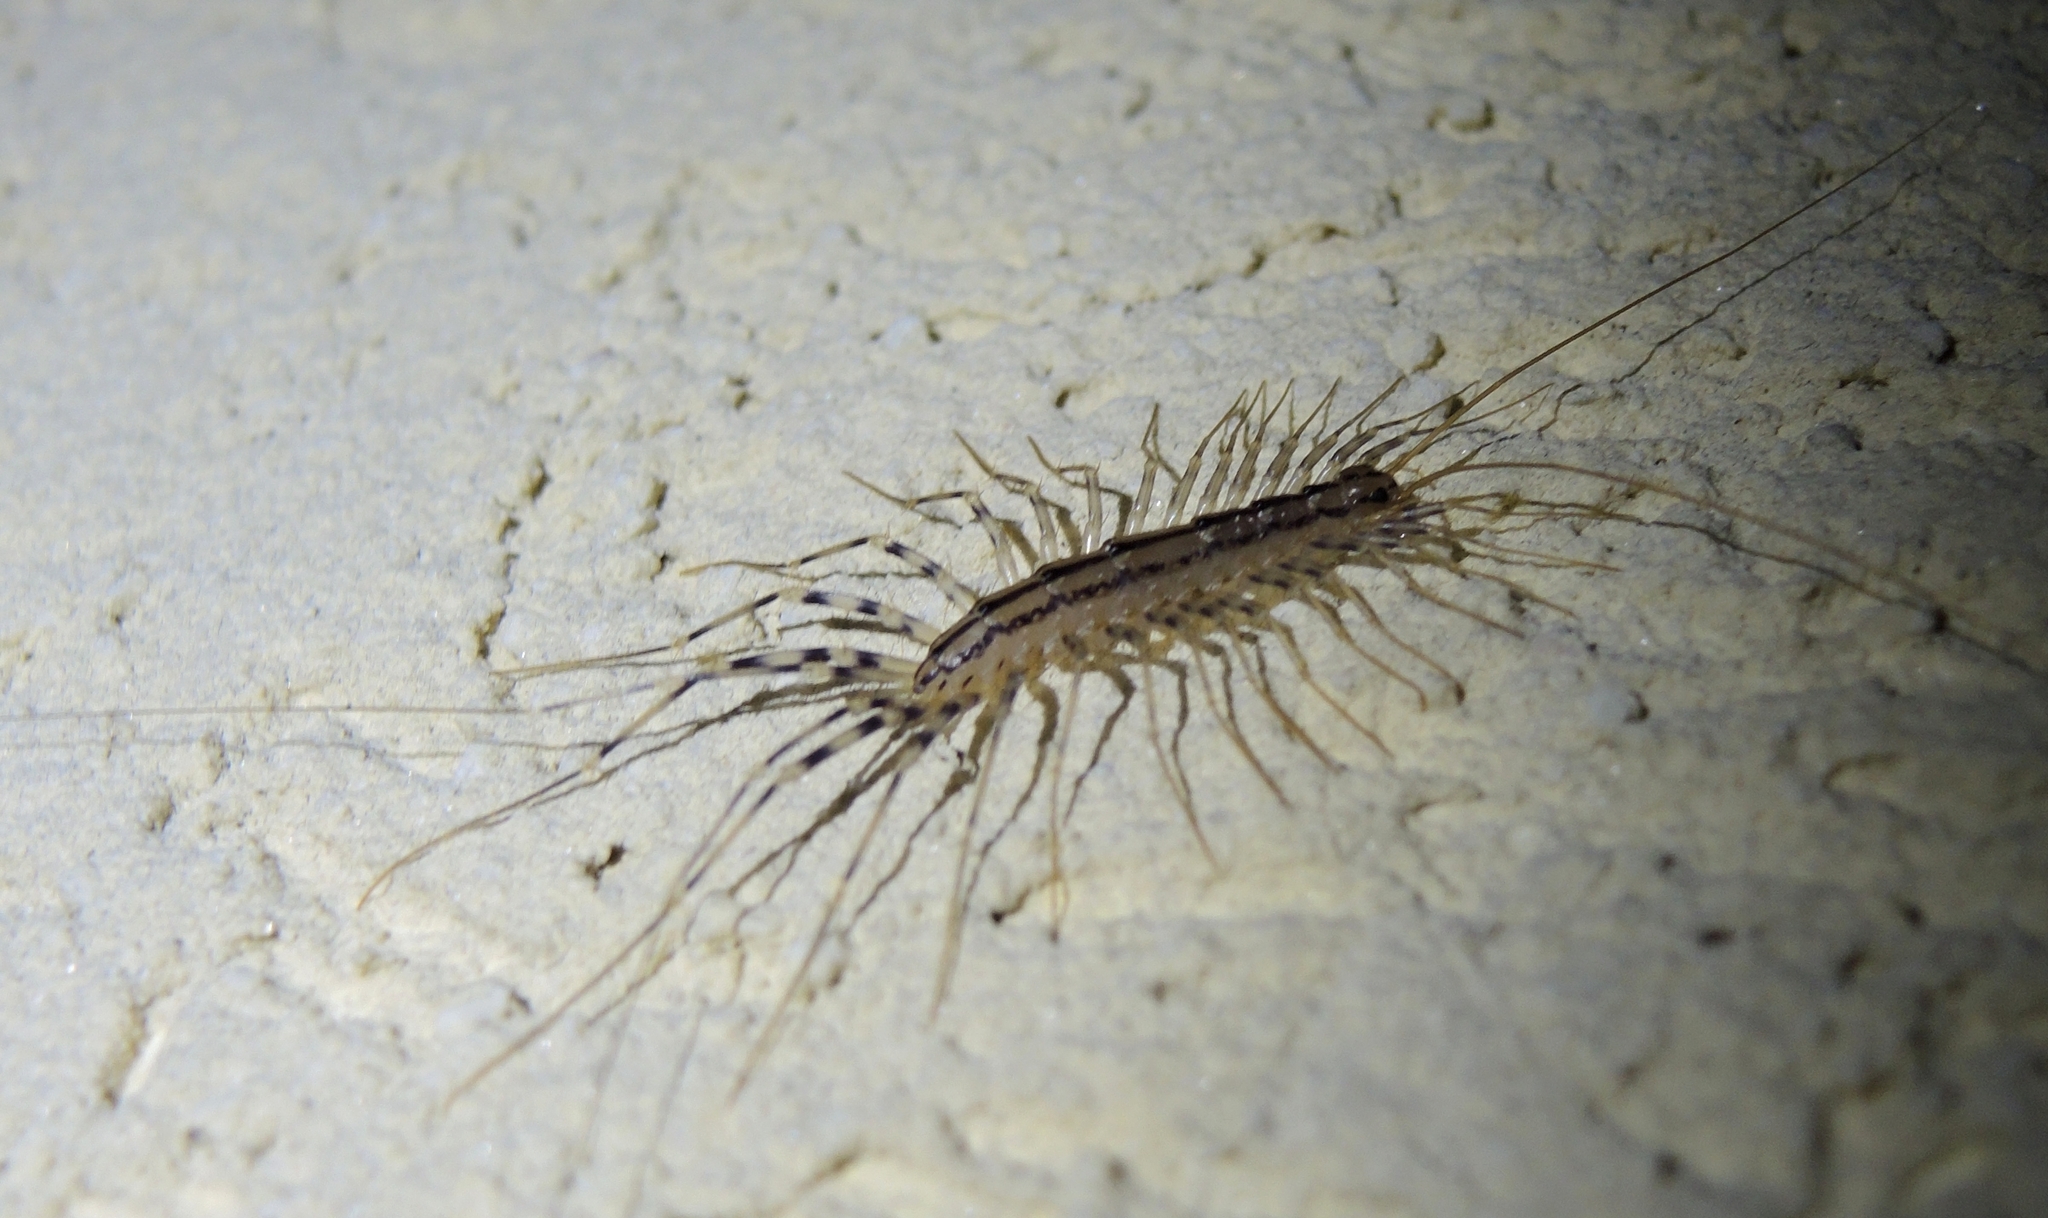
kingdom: Animalia
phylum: Arthropoda
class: Chilopoda
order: Scutigeromorpha
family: Scutigeridae
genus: Scutigera
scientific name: Scutigera coleoptrata
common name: House centipede
